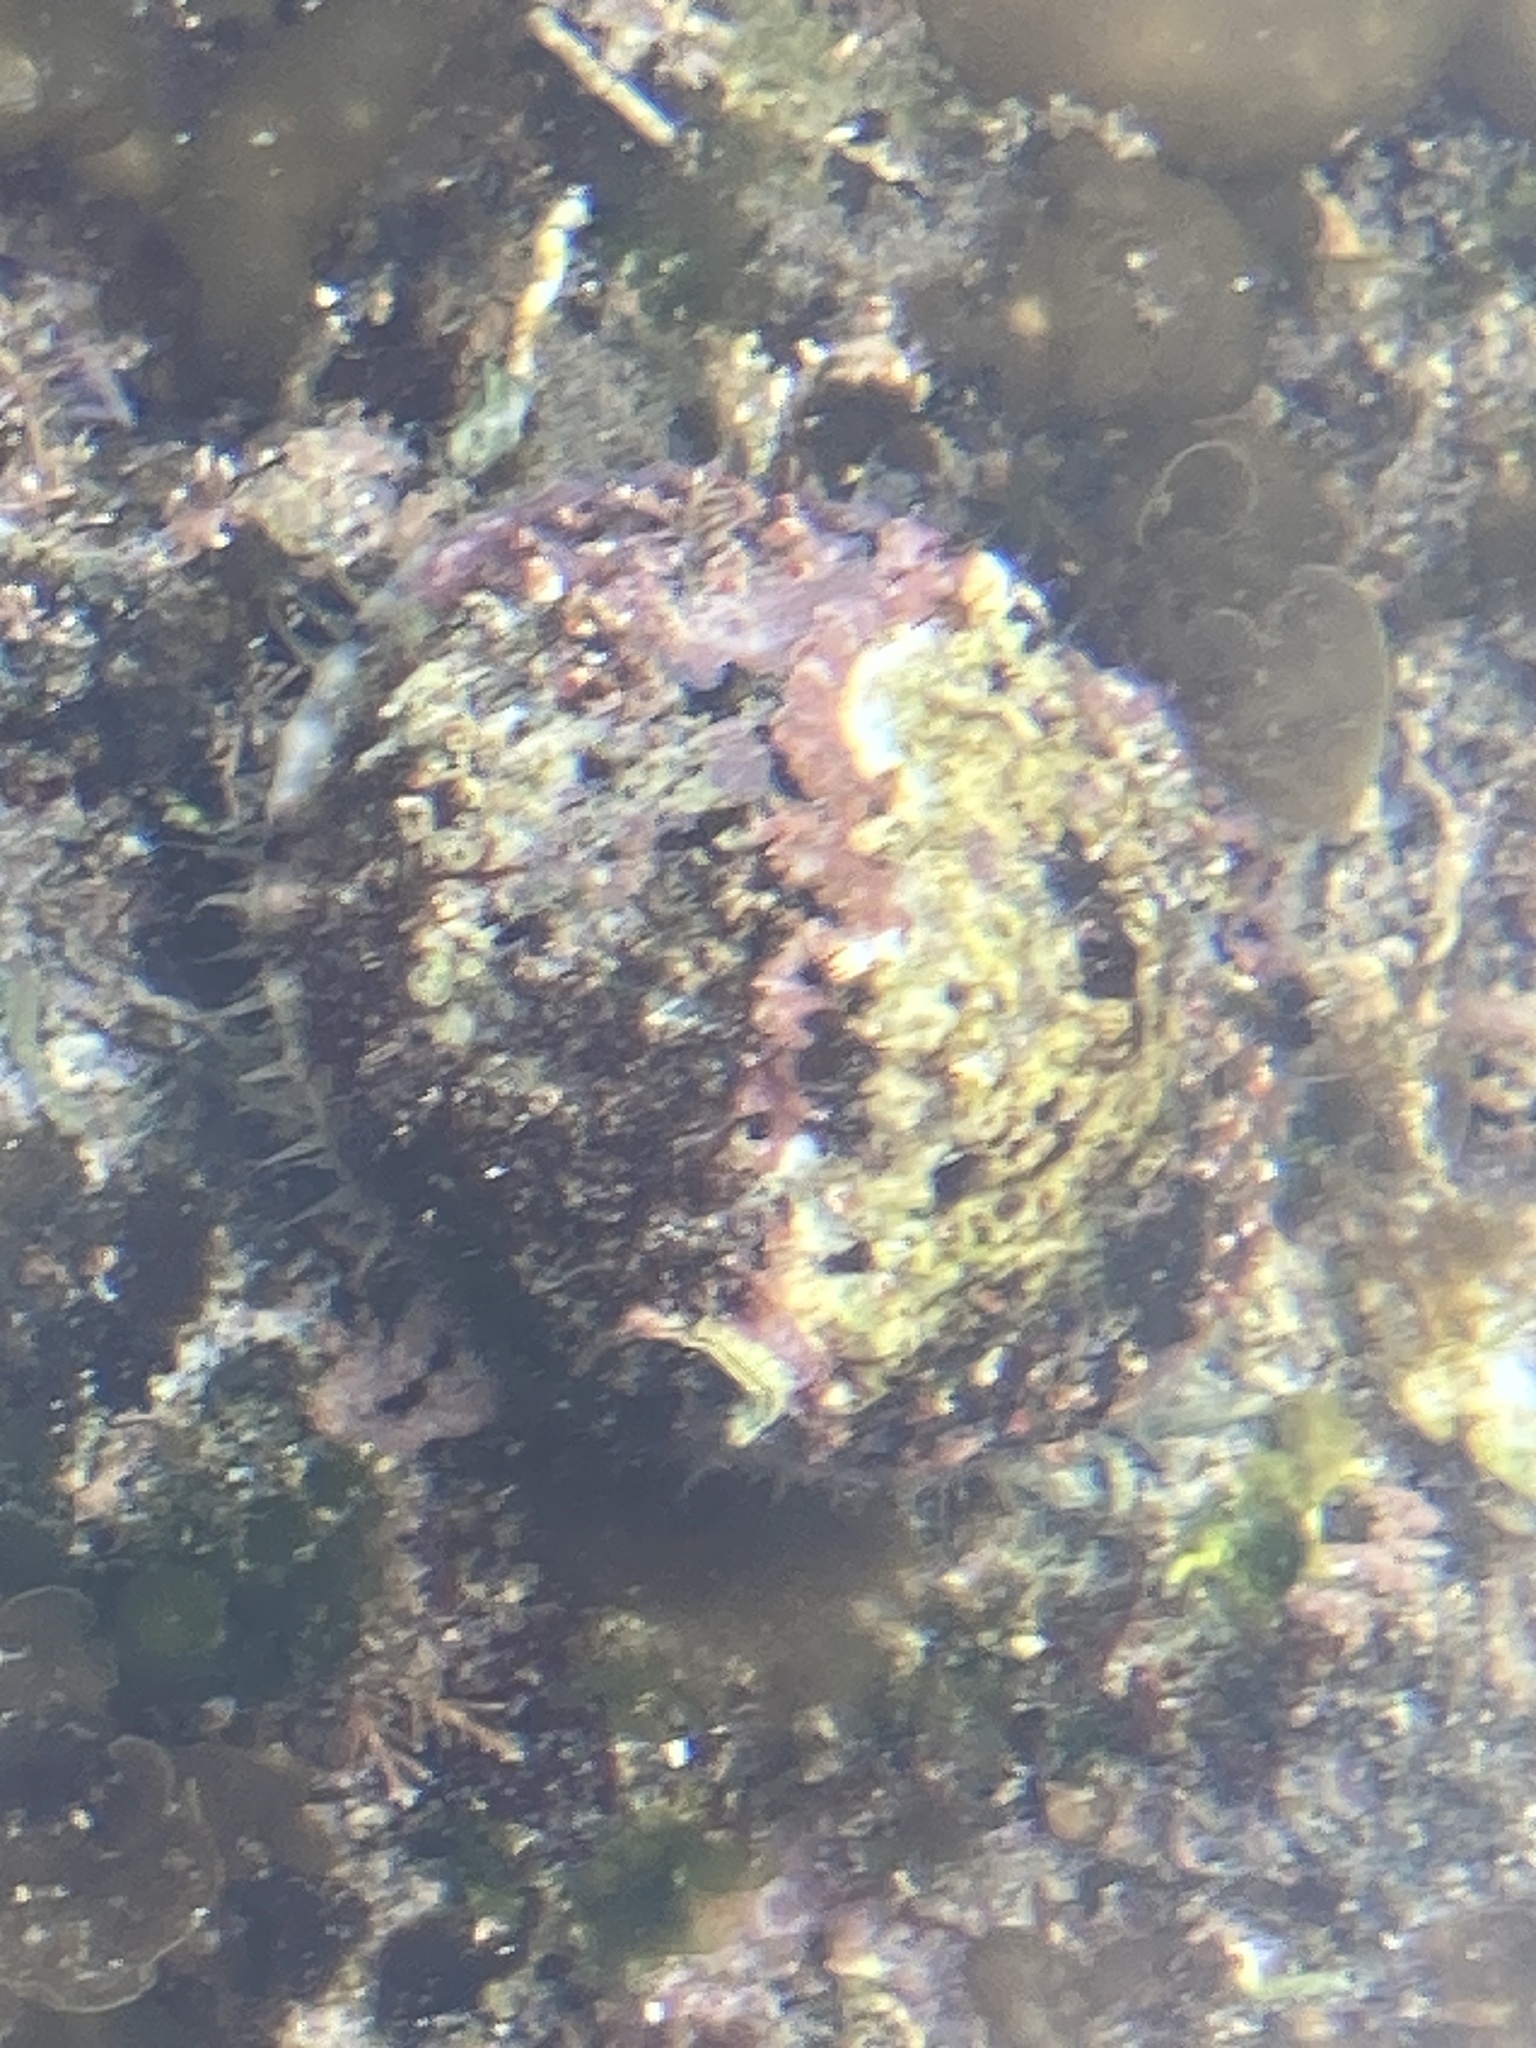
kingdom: Animalia
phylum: Mollusca
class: Gastropoda
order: Lepetellida
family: Haliotidae
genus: Haliotis
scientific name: Haliotis rubra
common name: Blacklip abalone
